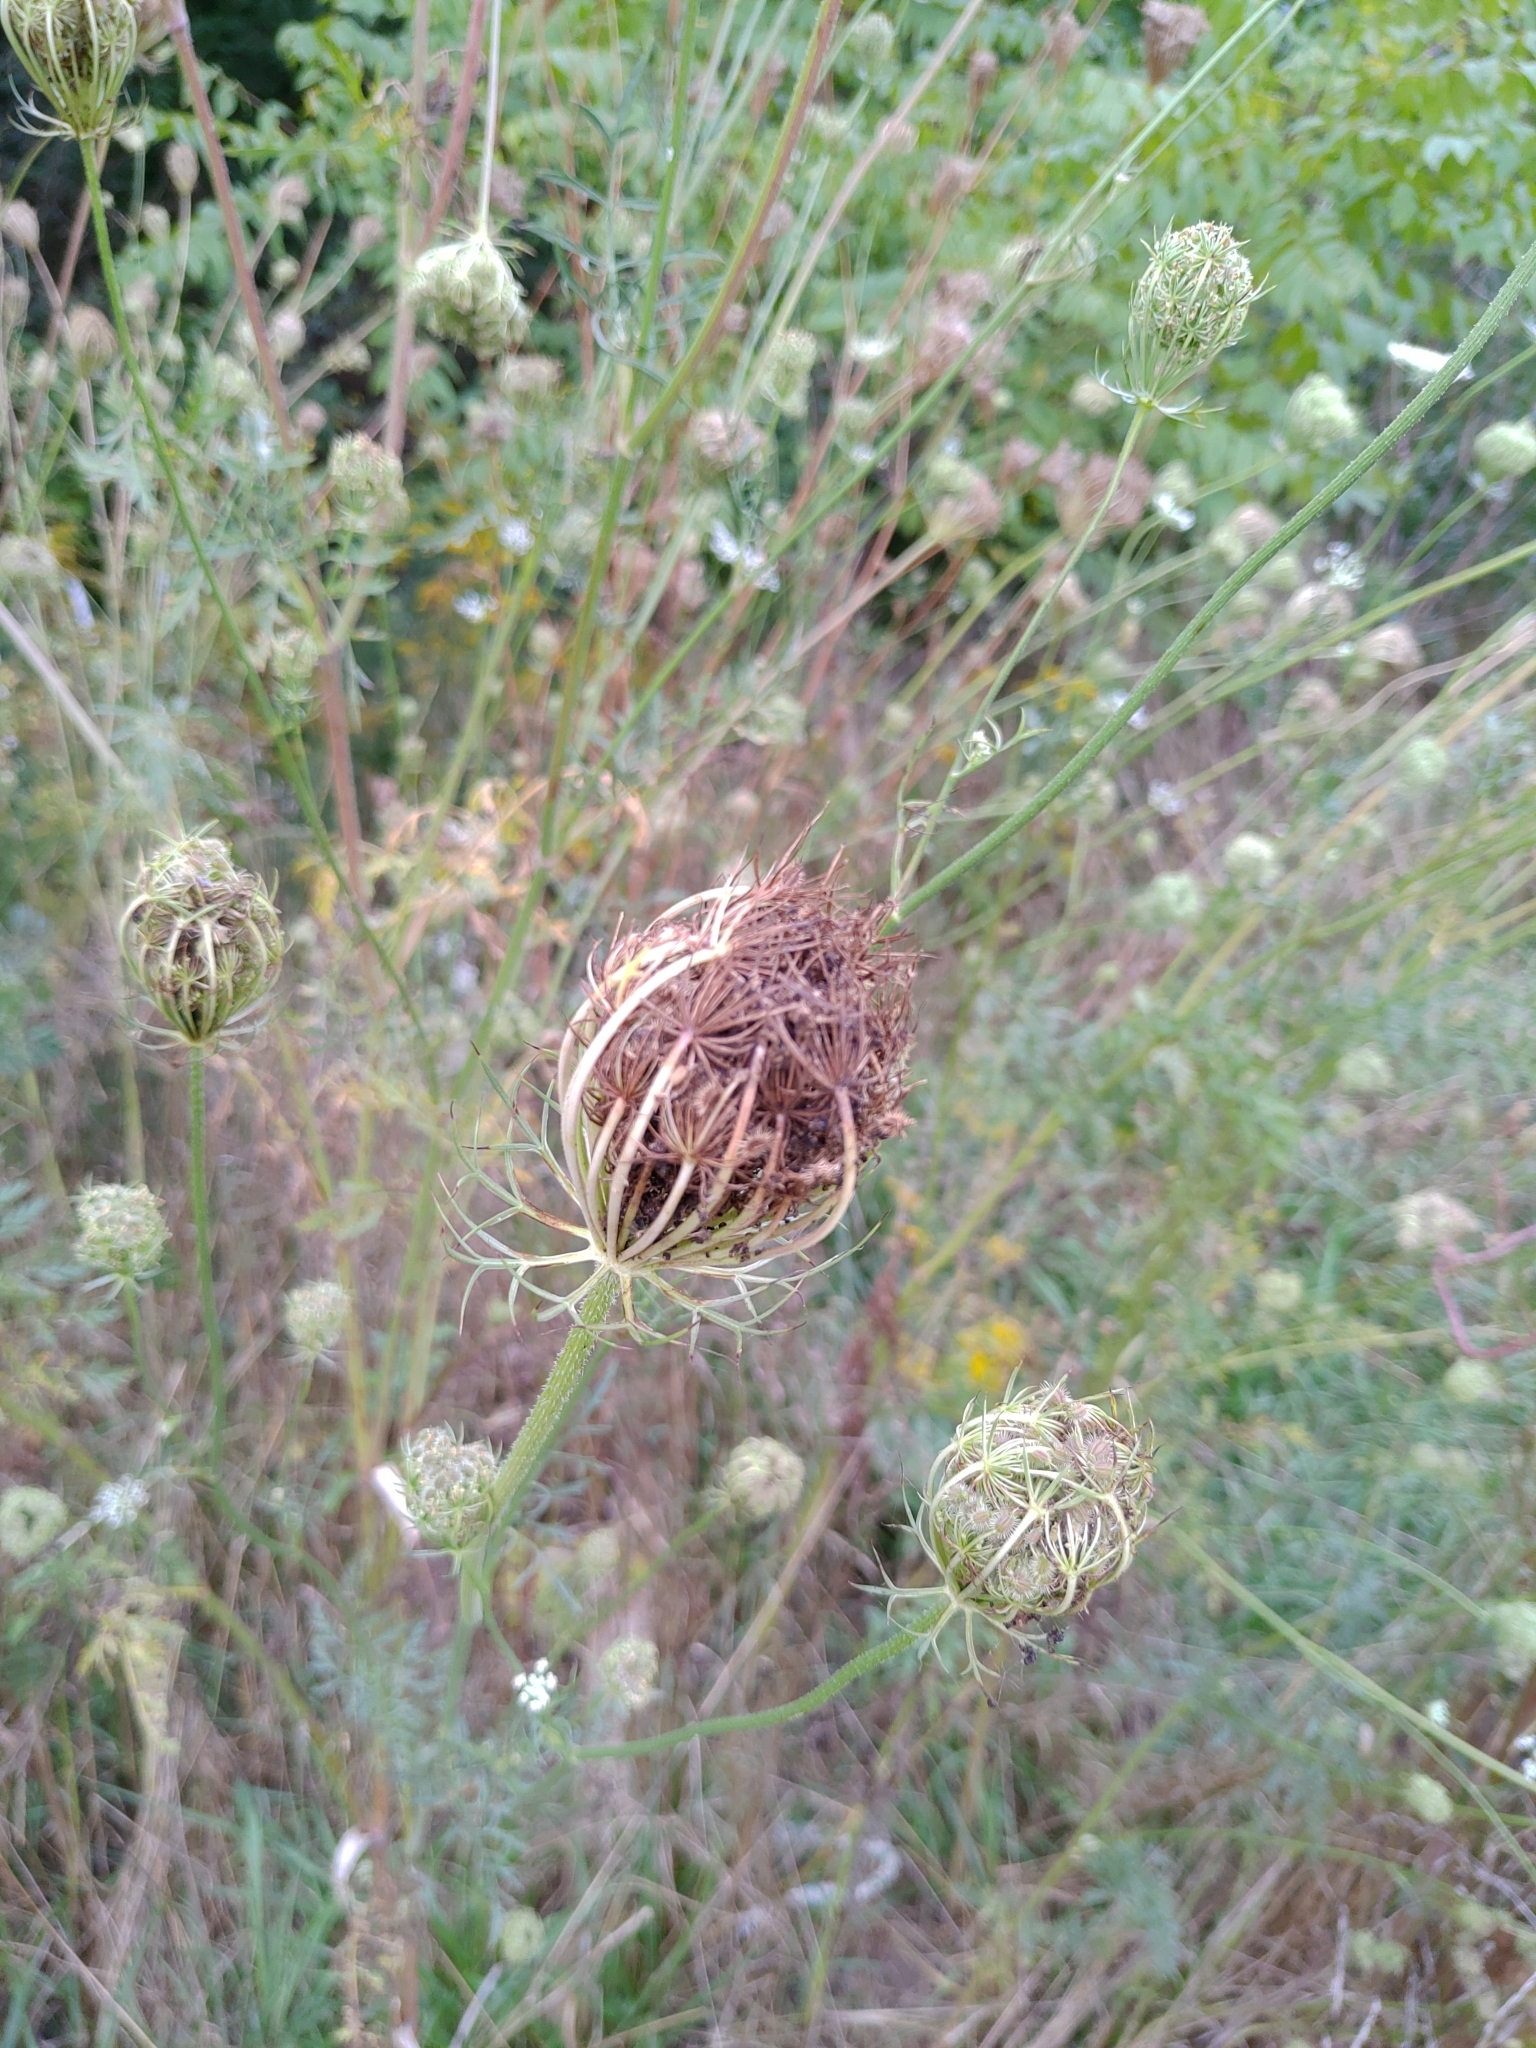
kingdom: Plantae
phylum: Tracheophyta
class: Magnoliopsida
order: Apiales
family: Apiaceae
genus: Daucus
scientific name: Daucus carota
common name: Wild carrot
